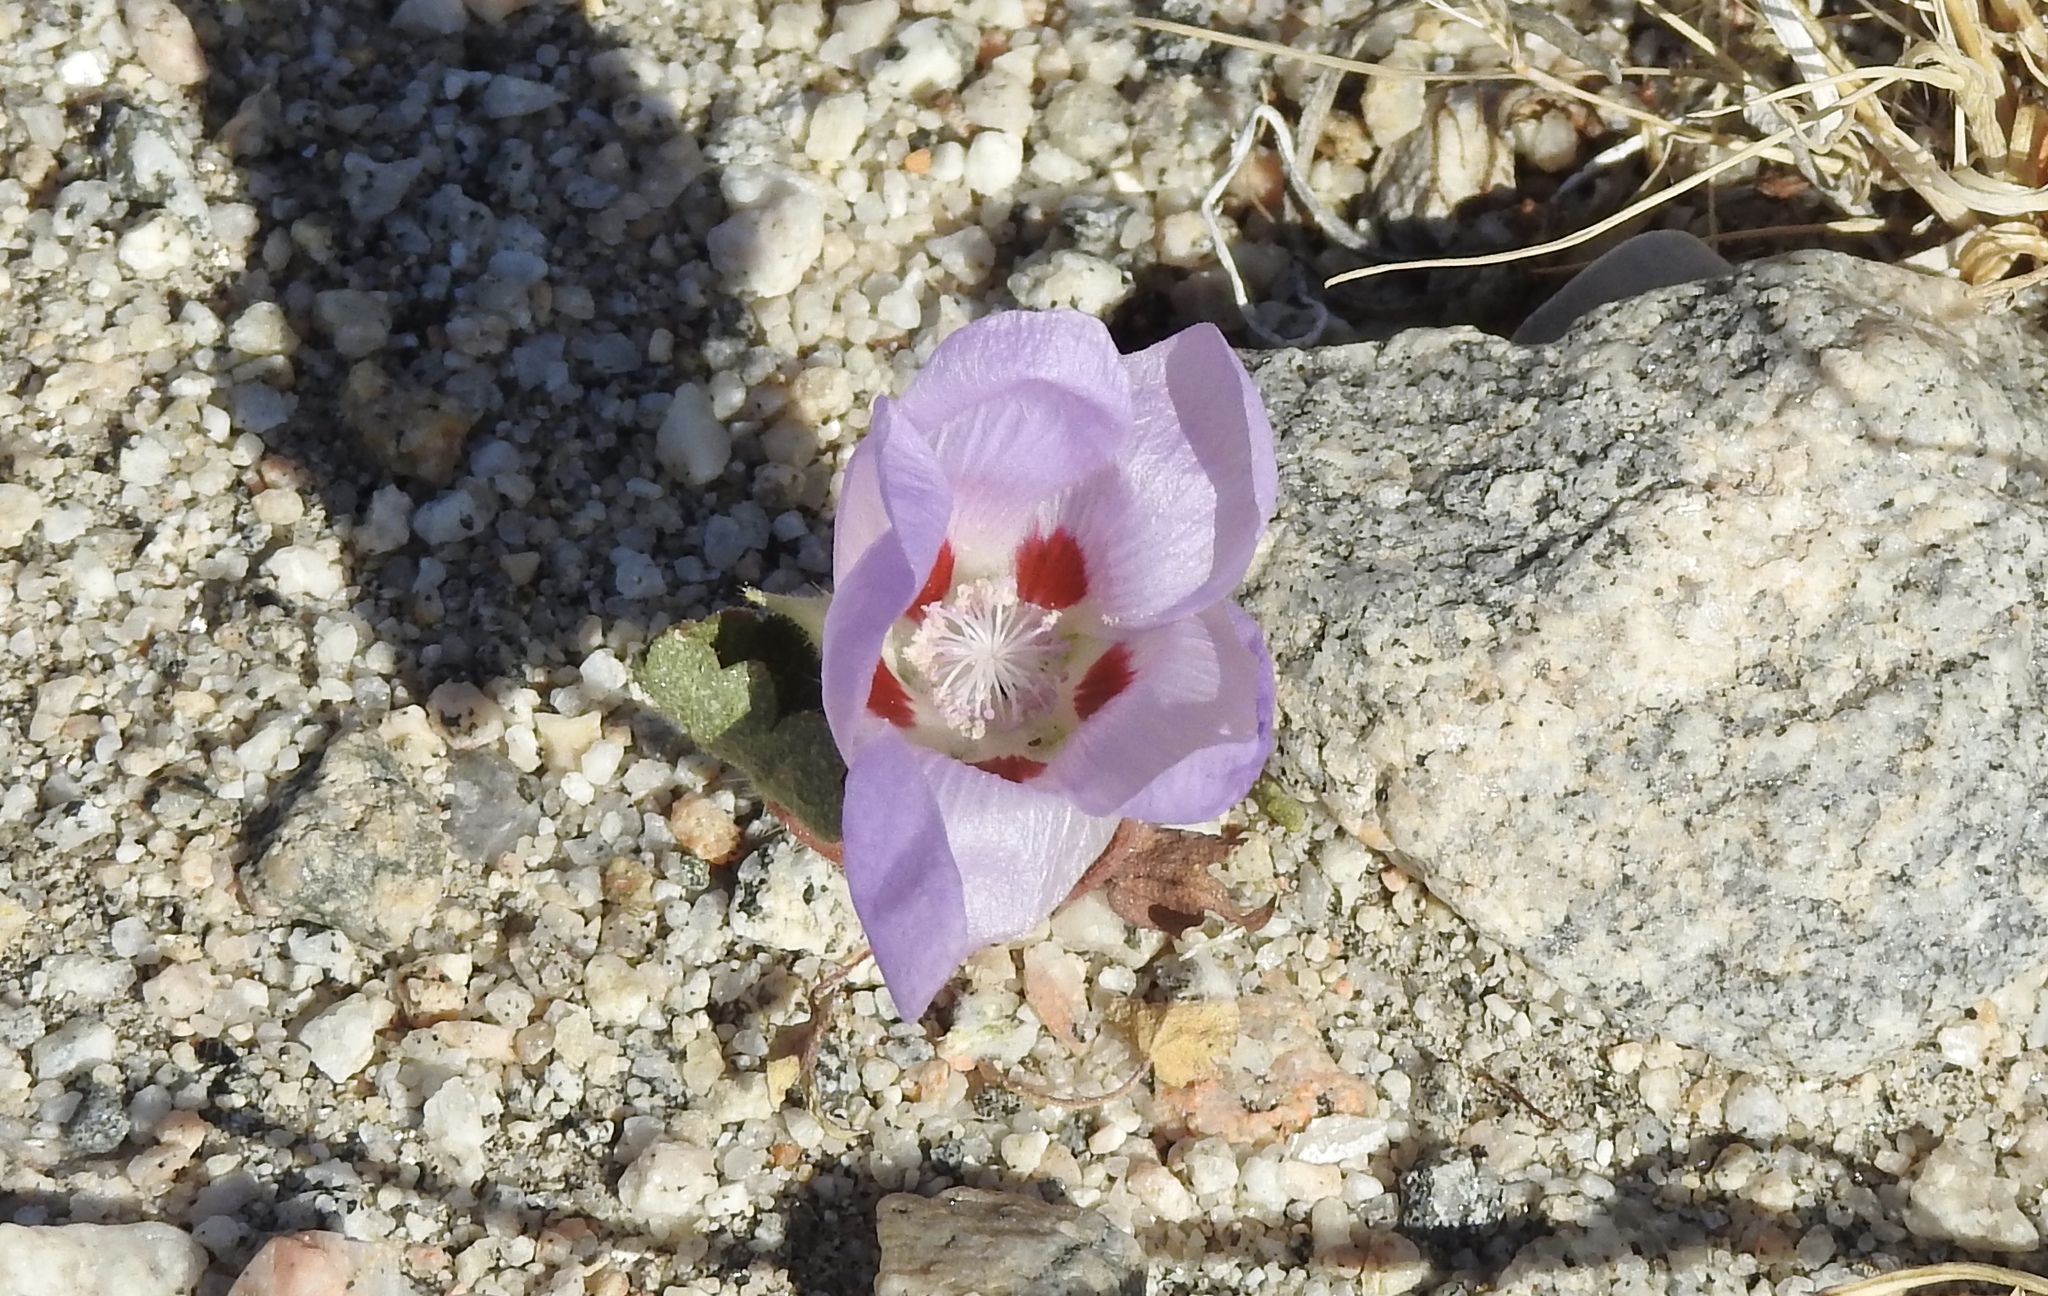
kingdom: Plantae
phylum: Tracheophyta
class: Magnoliopsida
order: Malvales
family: Malvaceae
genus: Eremalche
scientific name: Eremalche rotundifolia
